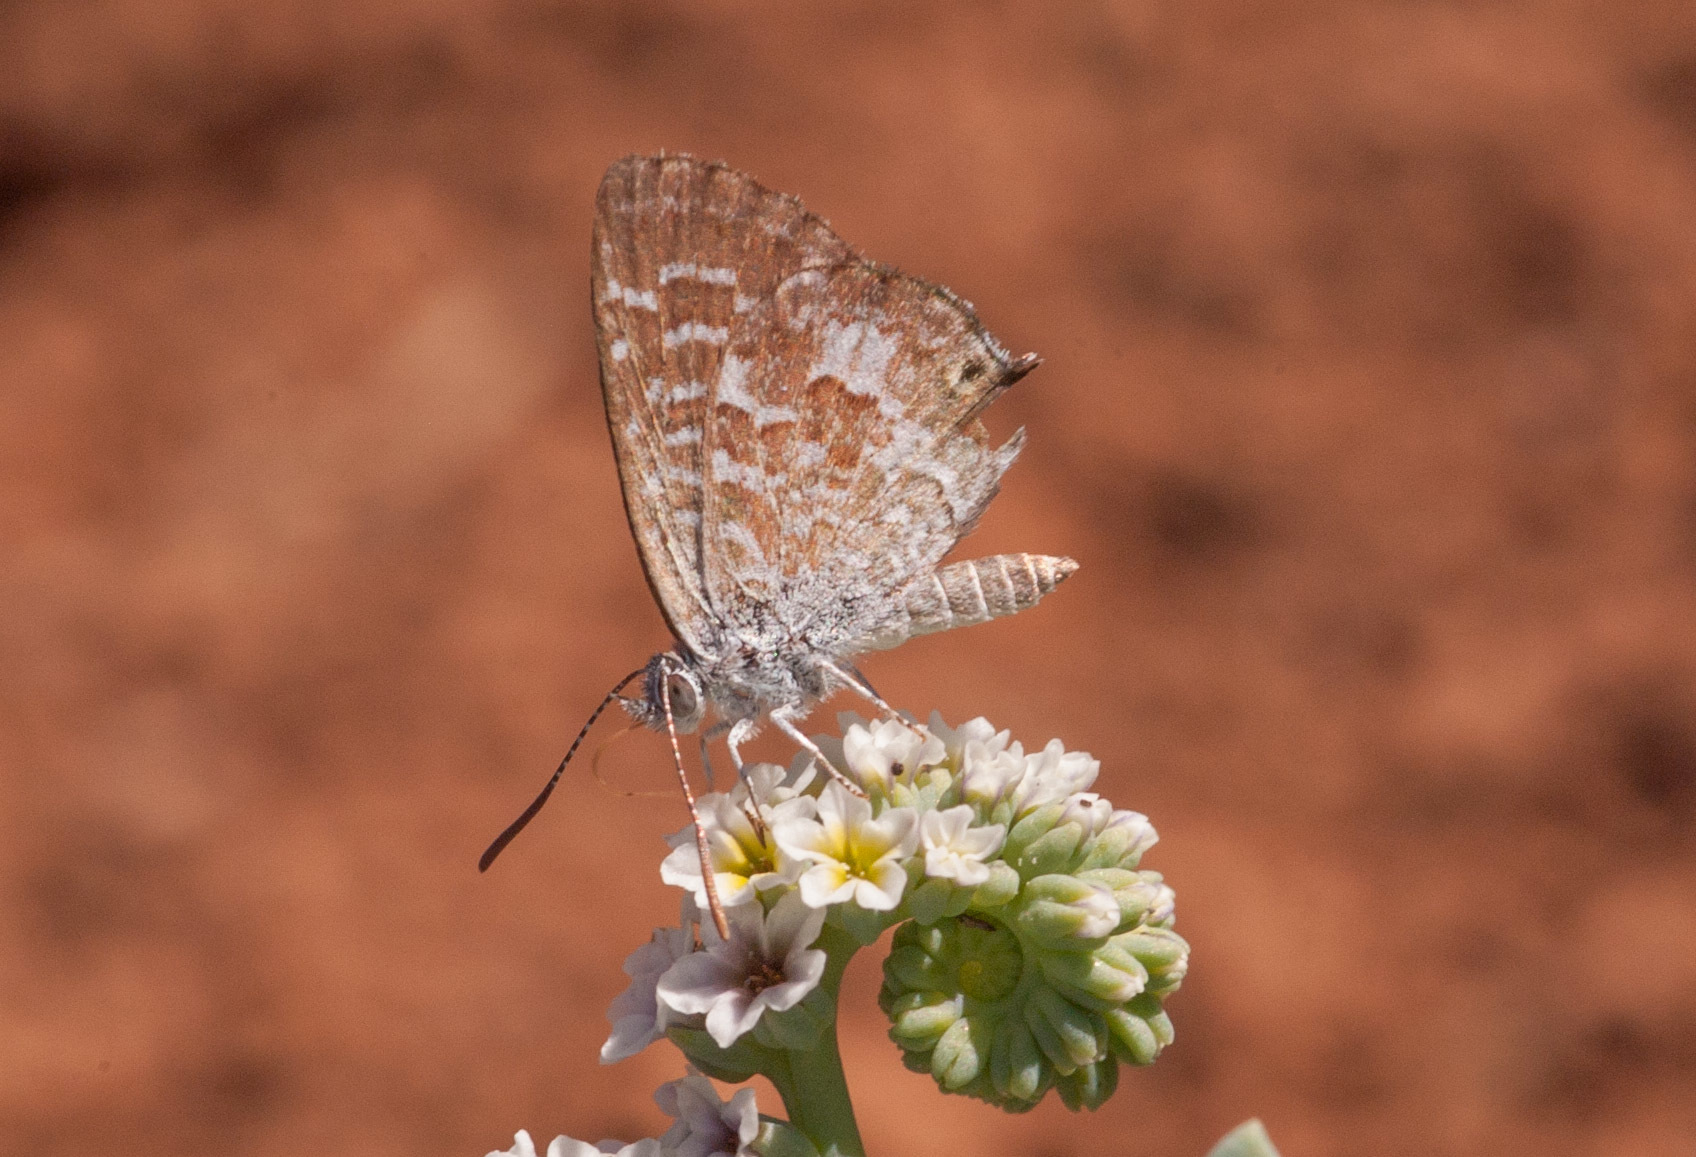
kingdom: Animalia
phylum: Arthropoda
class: Insecta
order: Lepidoptera
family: Lycaenidae
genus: Theclinesthes
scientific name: Theclinesthes serpentata
